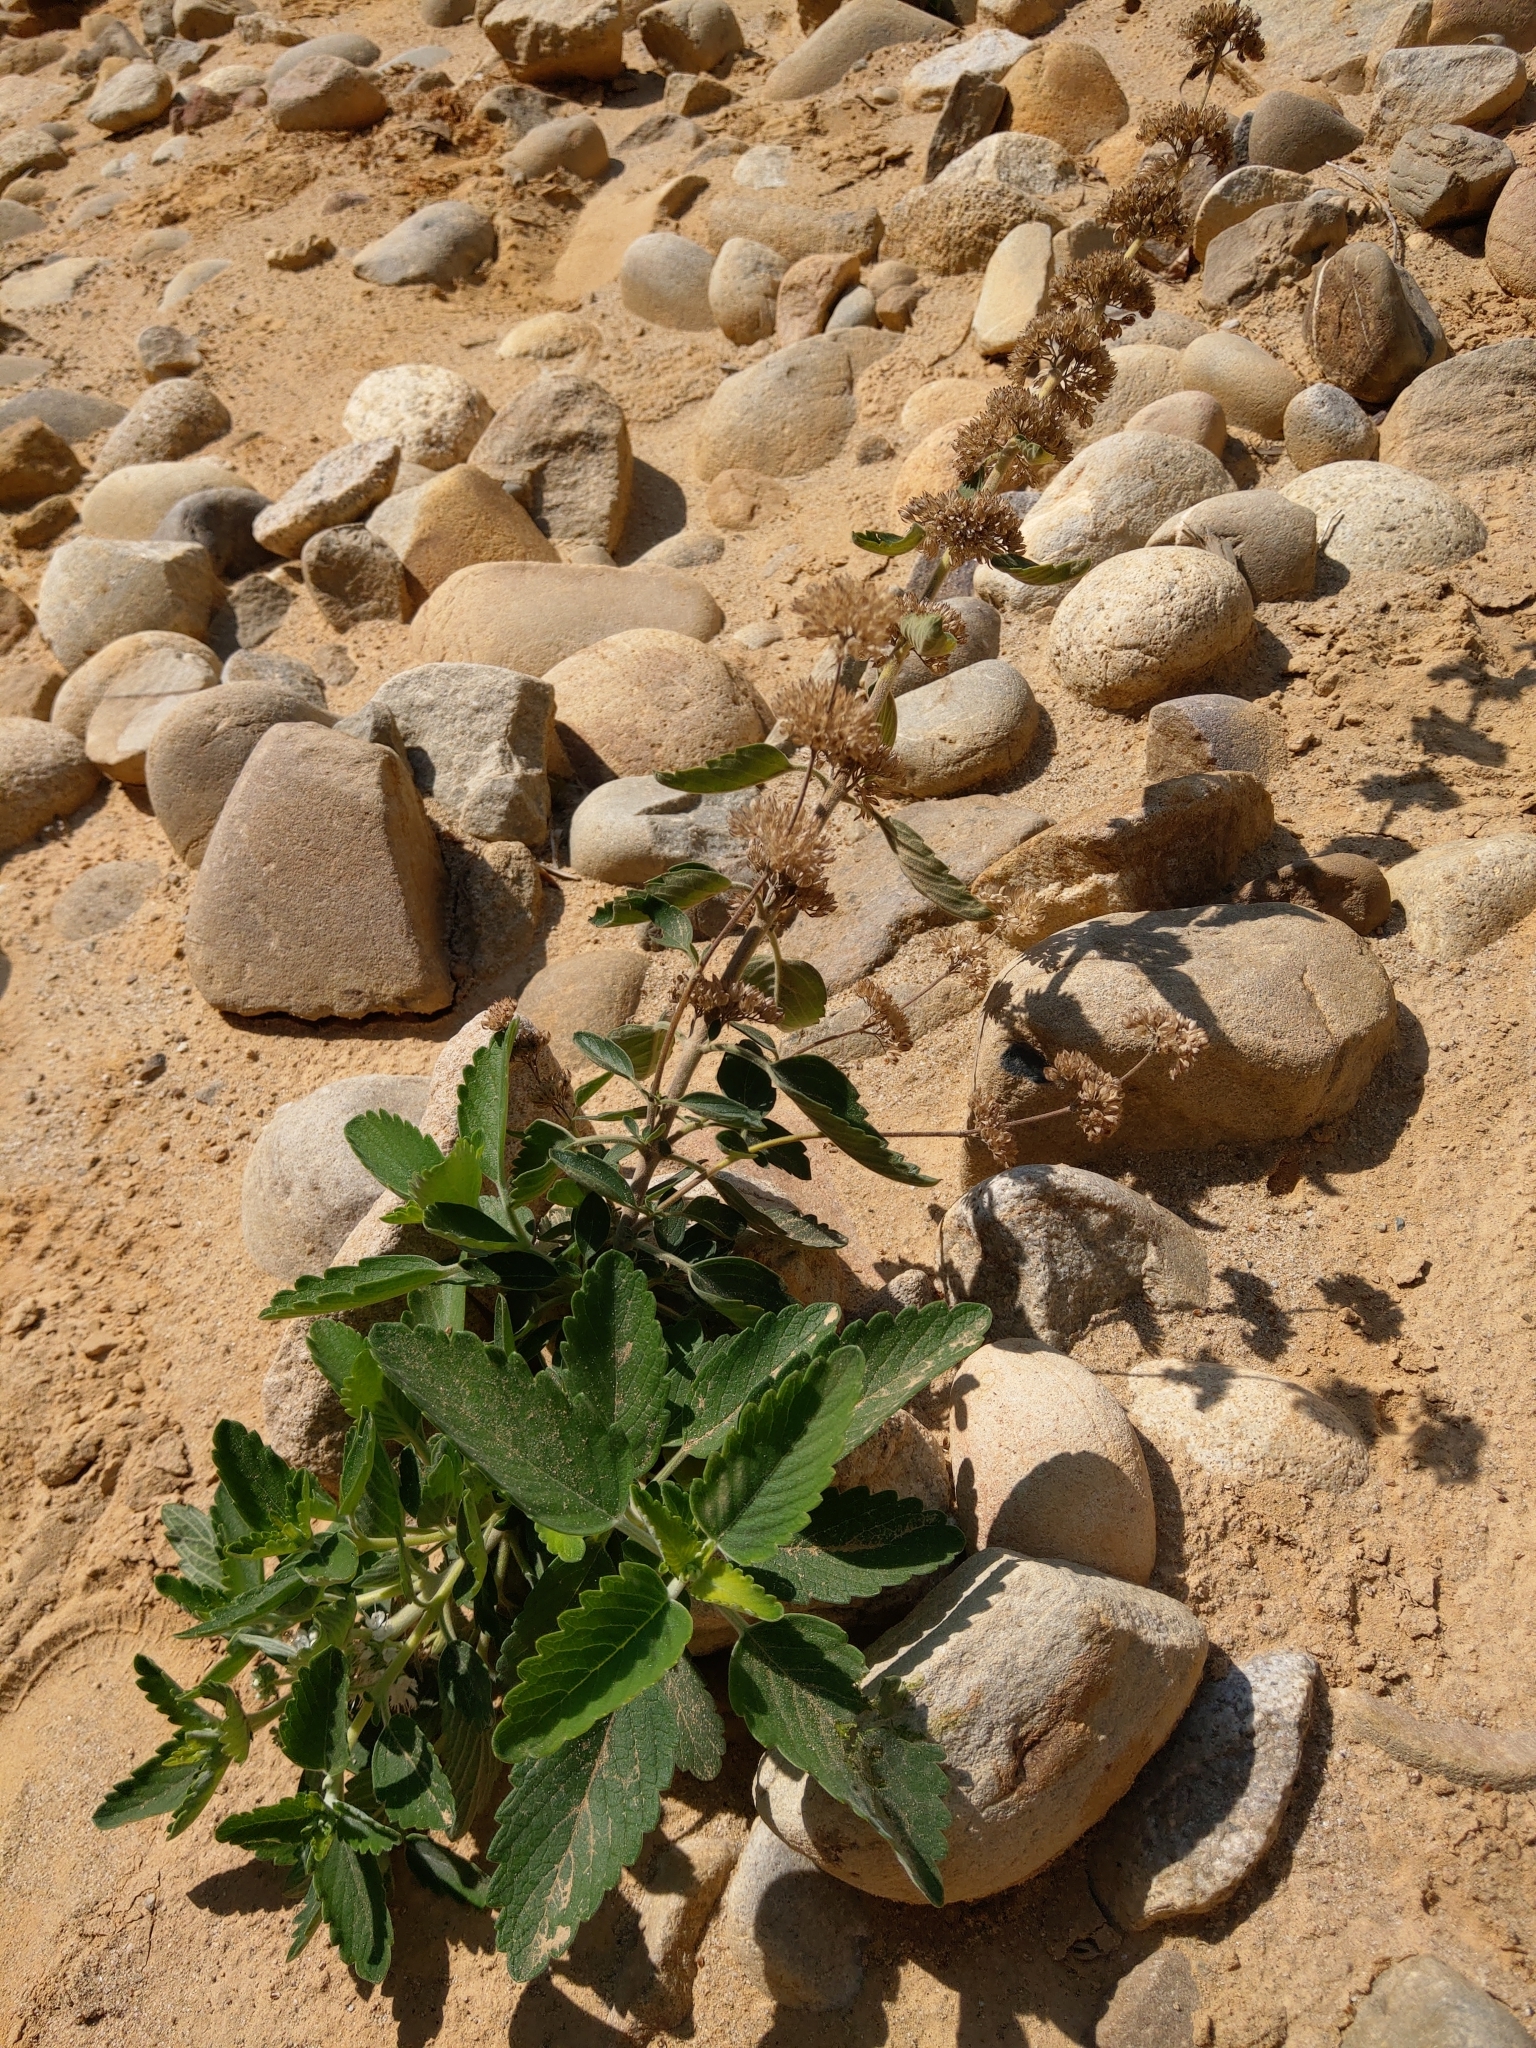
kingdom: Plantae
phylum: Tracheophyta
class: Magnoliopsida
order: Lamiales
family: Lamiaceae
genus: Caryopteris
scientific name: Caryopteris incana
